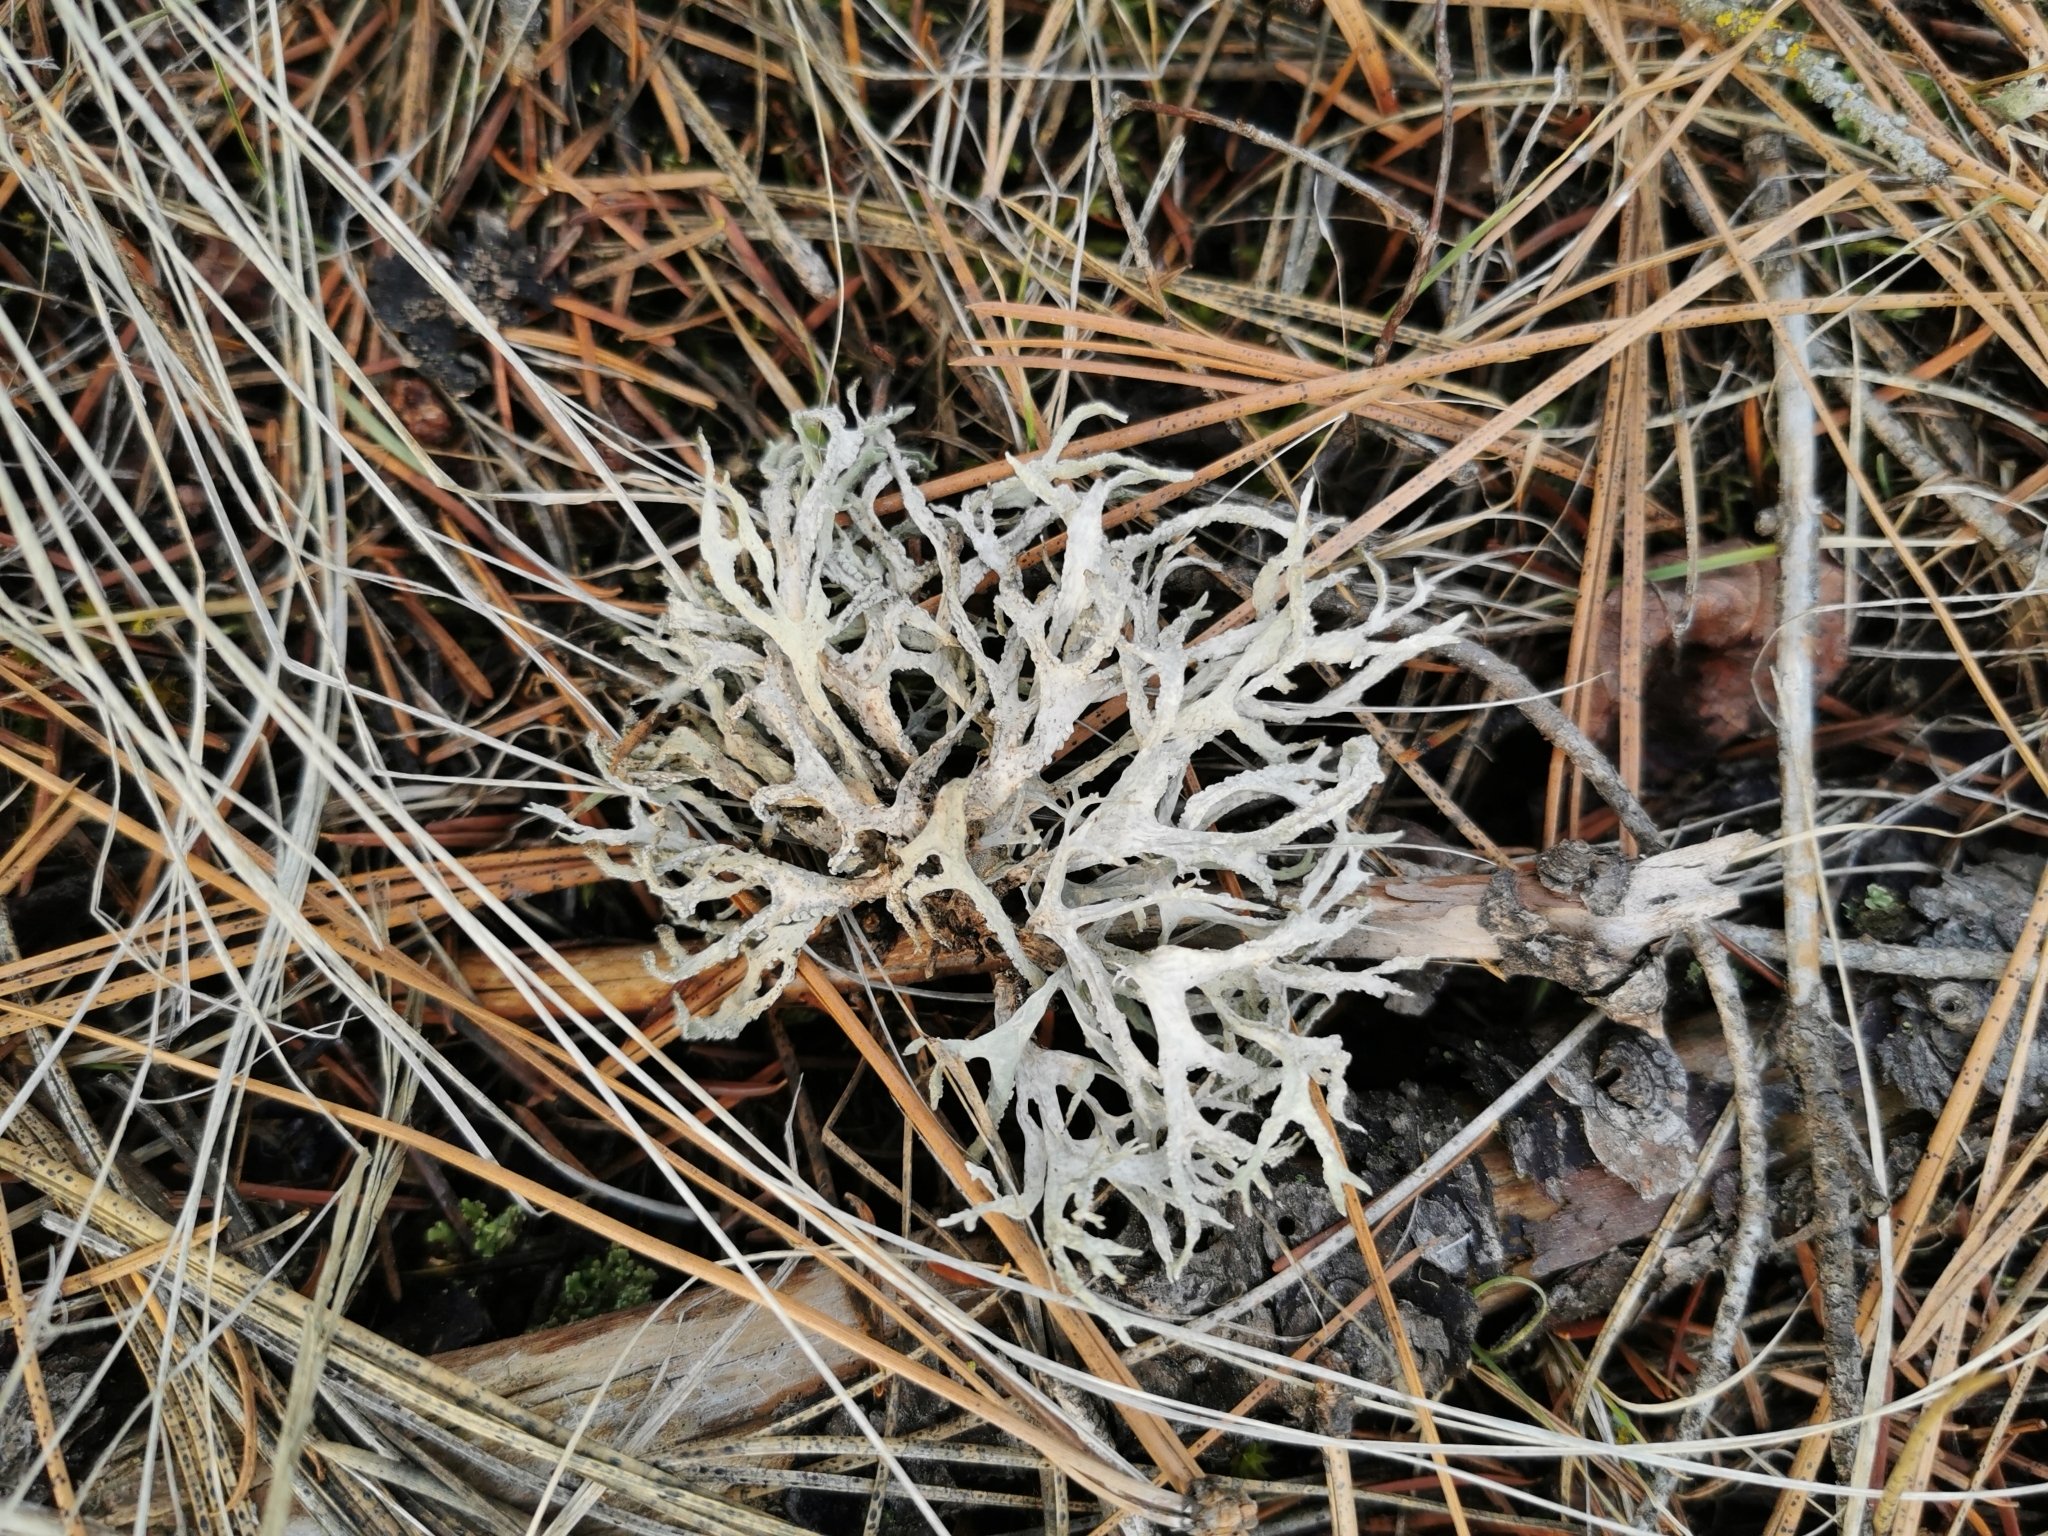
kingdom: Fungi
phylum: Ascomycota
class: Lecanoromycetes
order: Lecanorales
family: Parmeliaceae
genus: Evernia
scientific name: Evernia prunastri
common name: Oak moss
